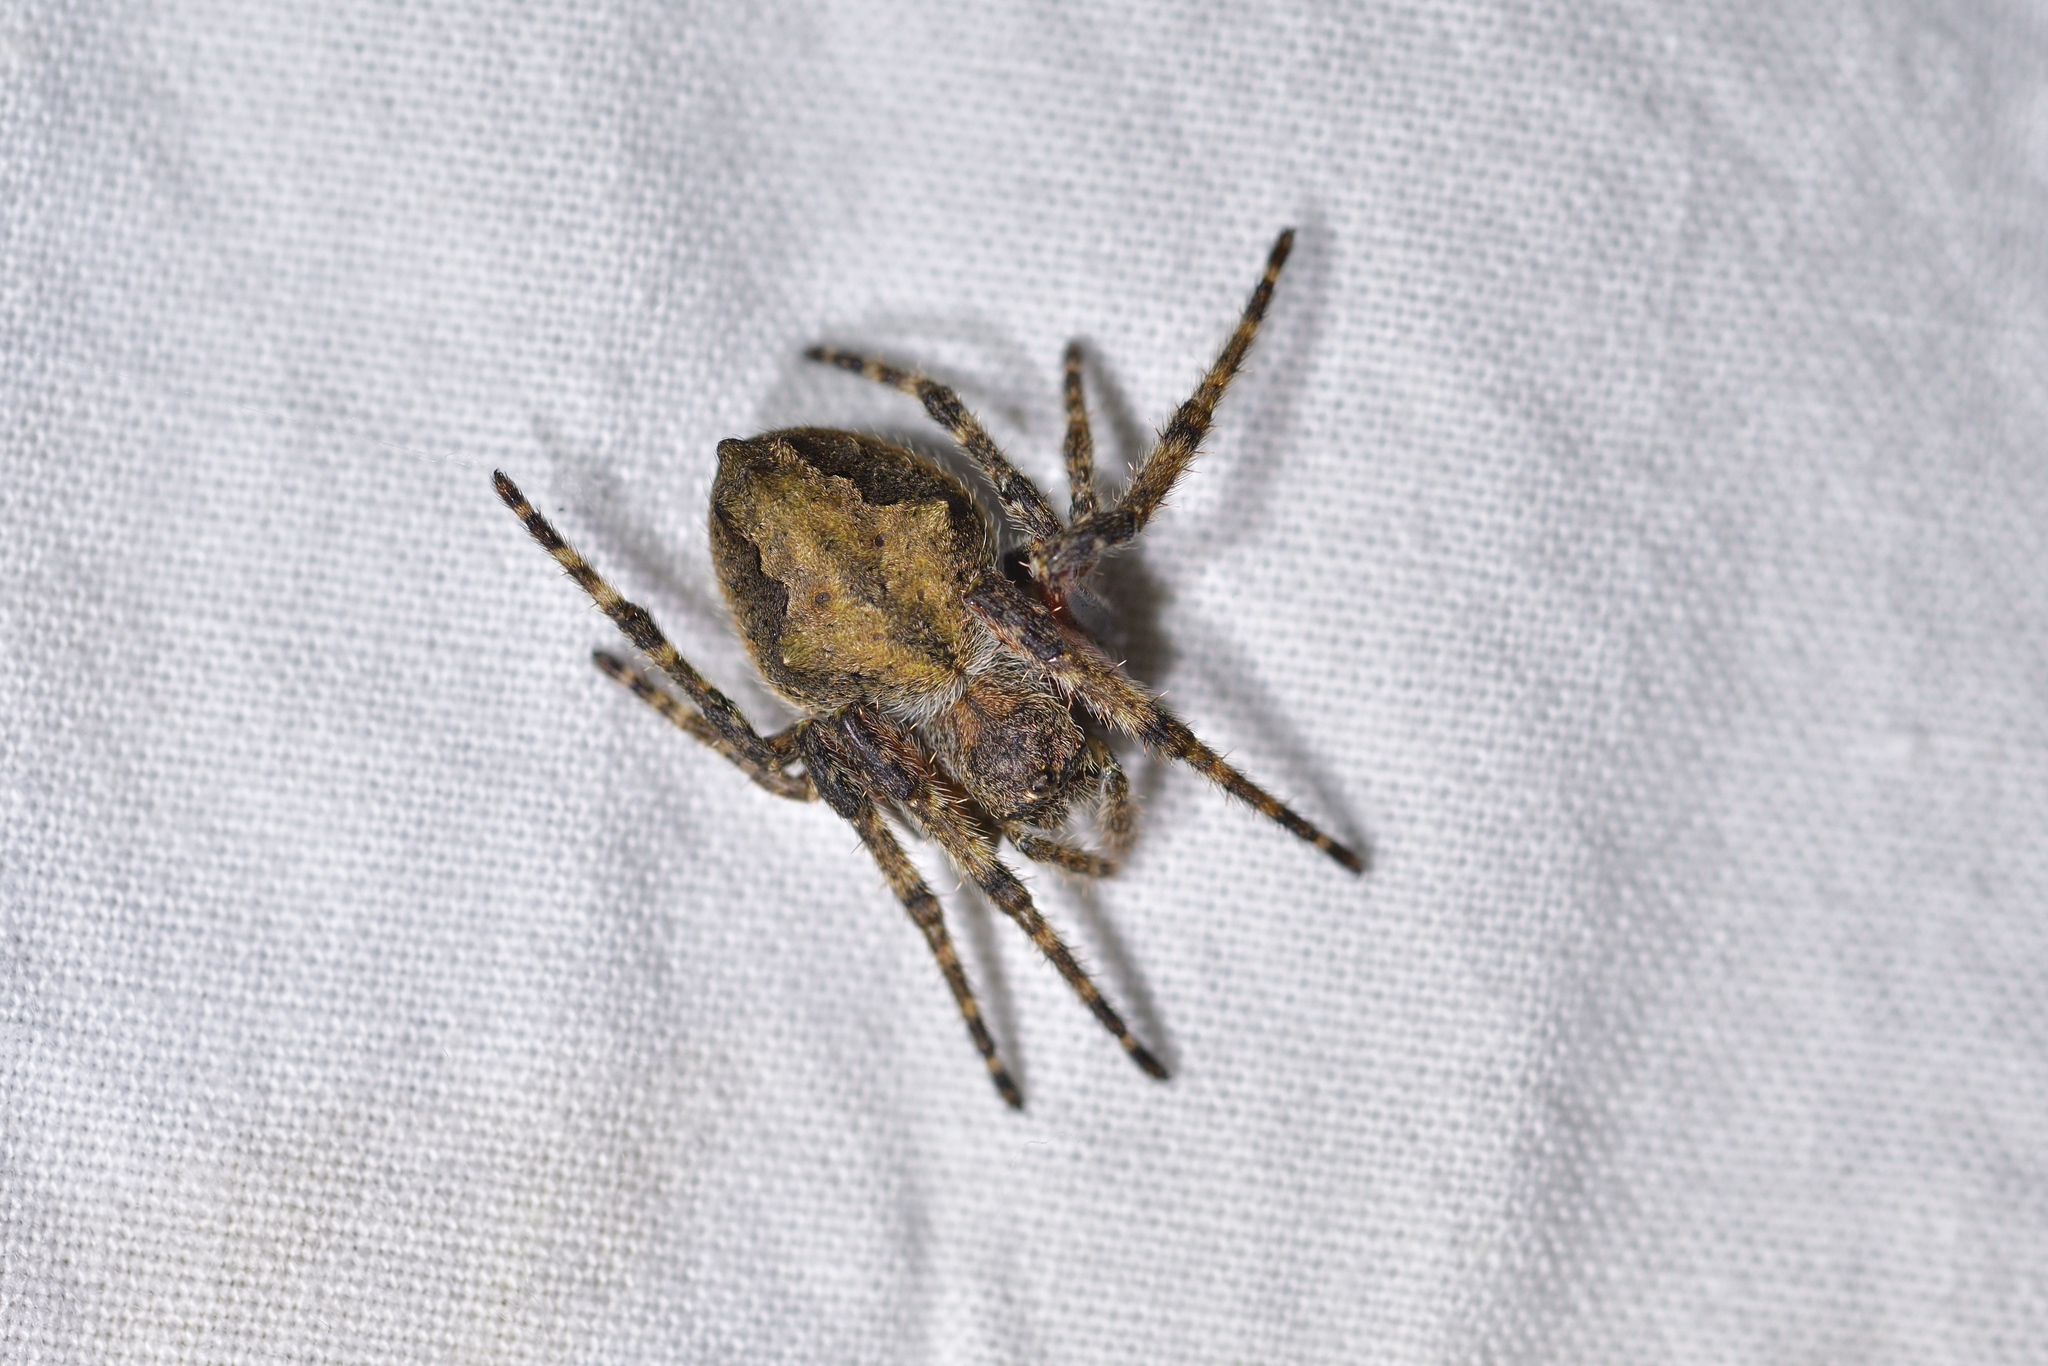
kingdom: Animalia
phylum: Arthropoda
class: Arachnida
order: Araneae
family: Araneidae
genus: Eriophora
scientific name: Eriophora pustulosa
